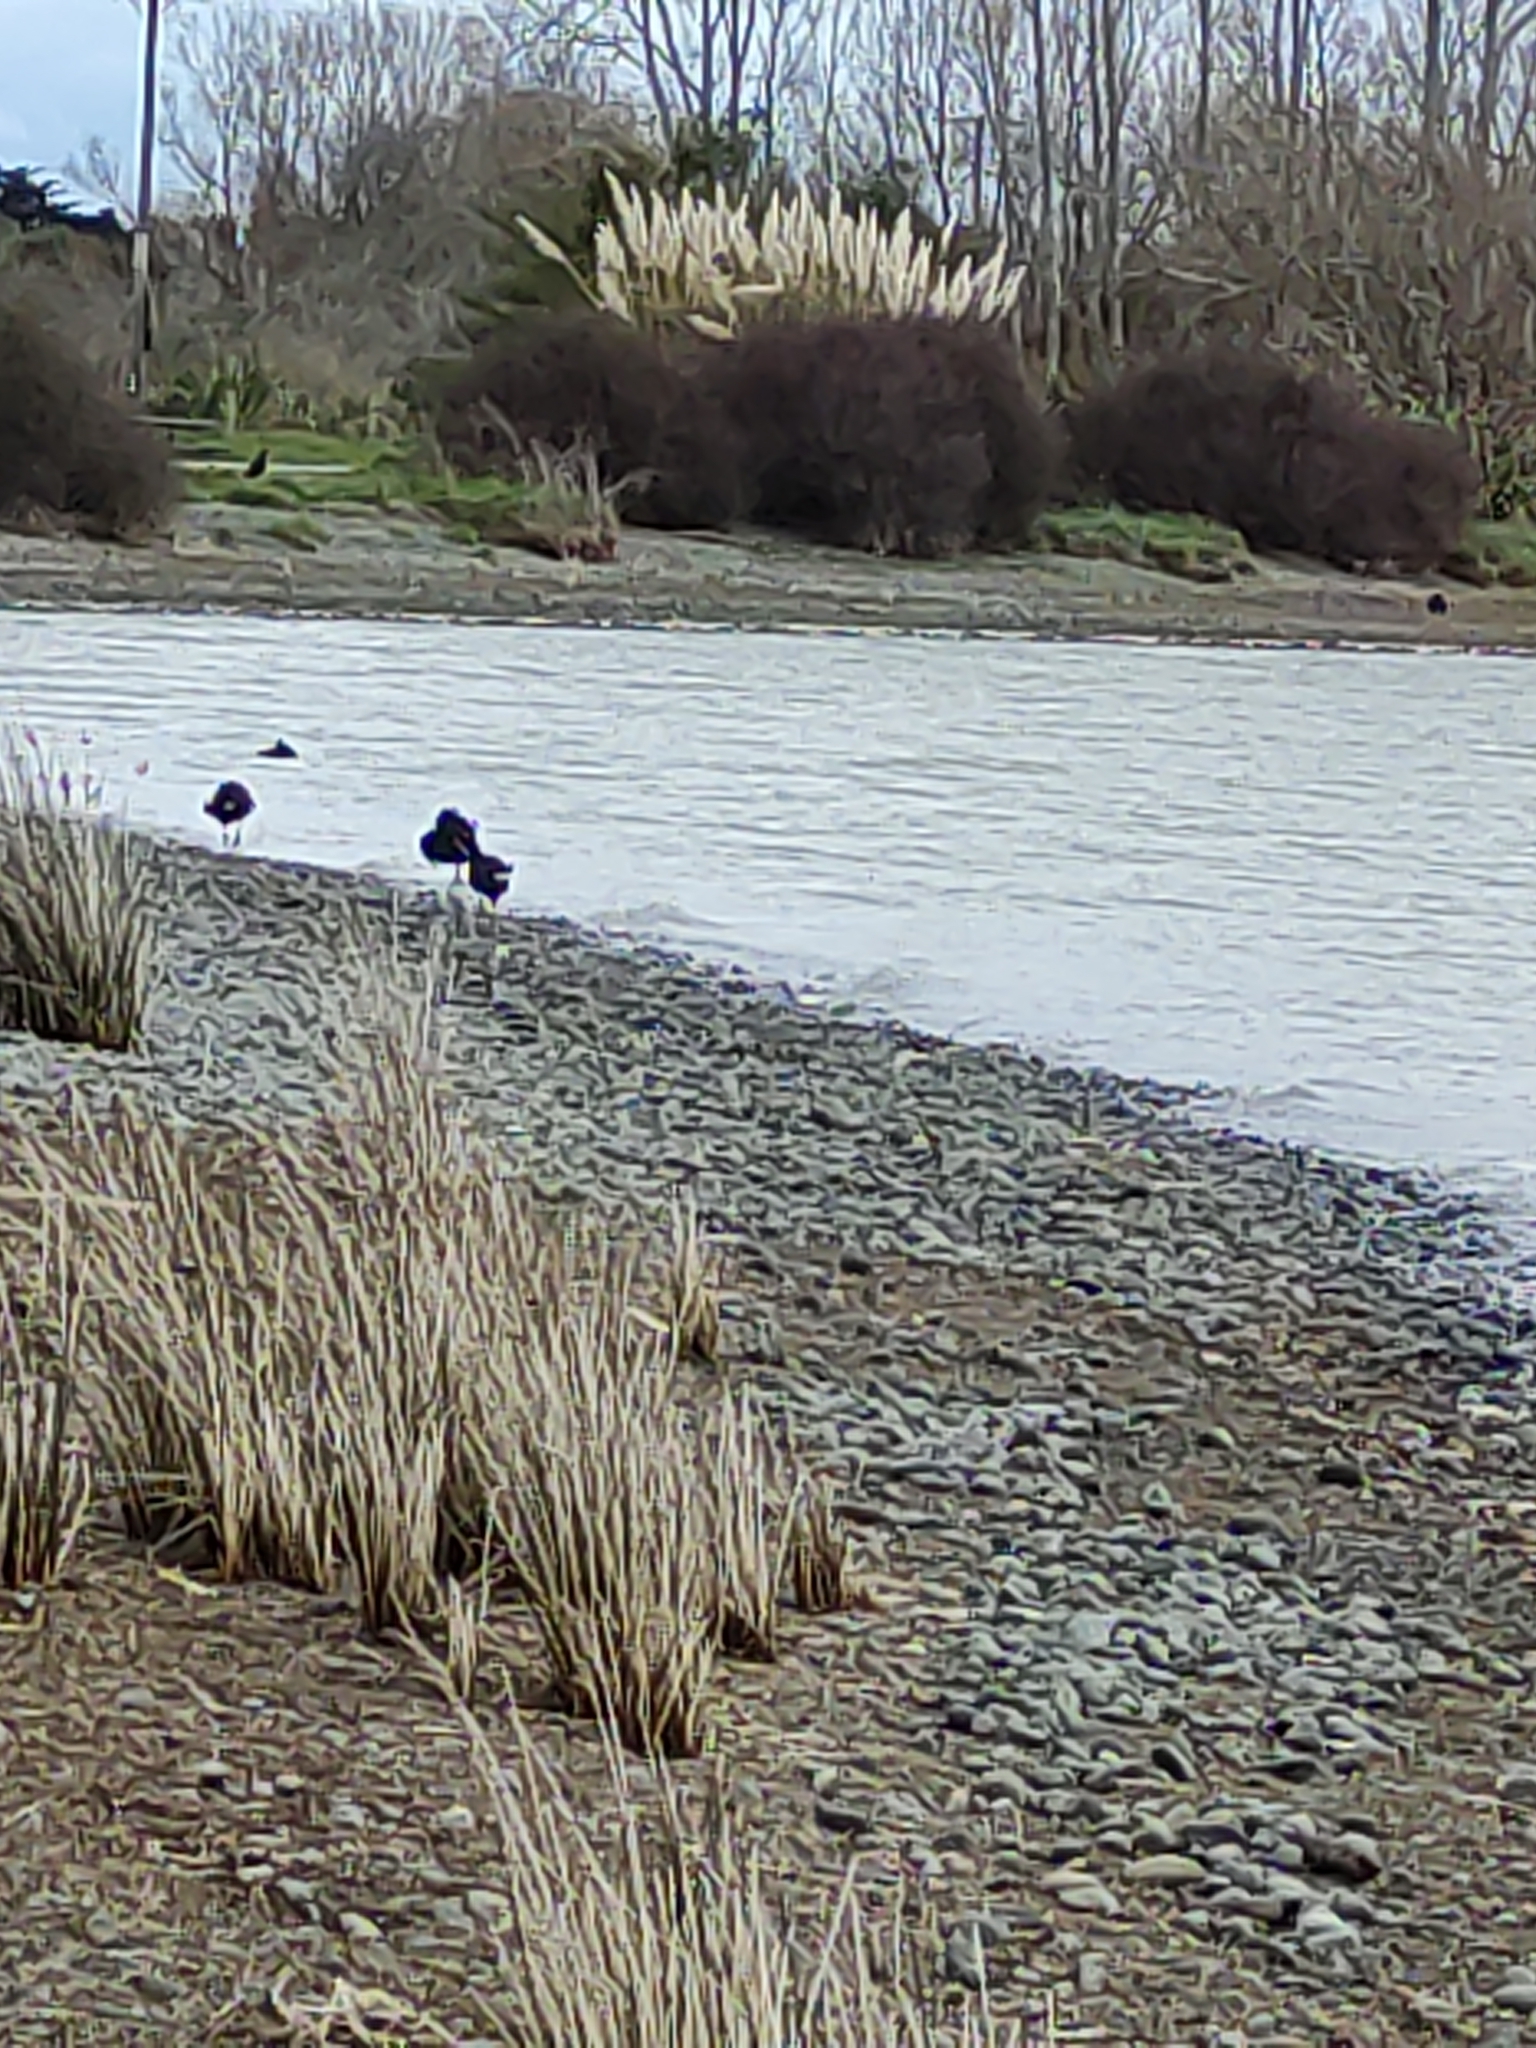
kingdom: Animalia
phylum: Chordata
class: Aves
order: Gruiformes
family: Rallidae
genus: Porphyrio
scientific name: Porphyrio melanotus
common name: Australasian swamphen
